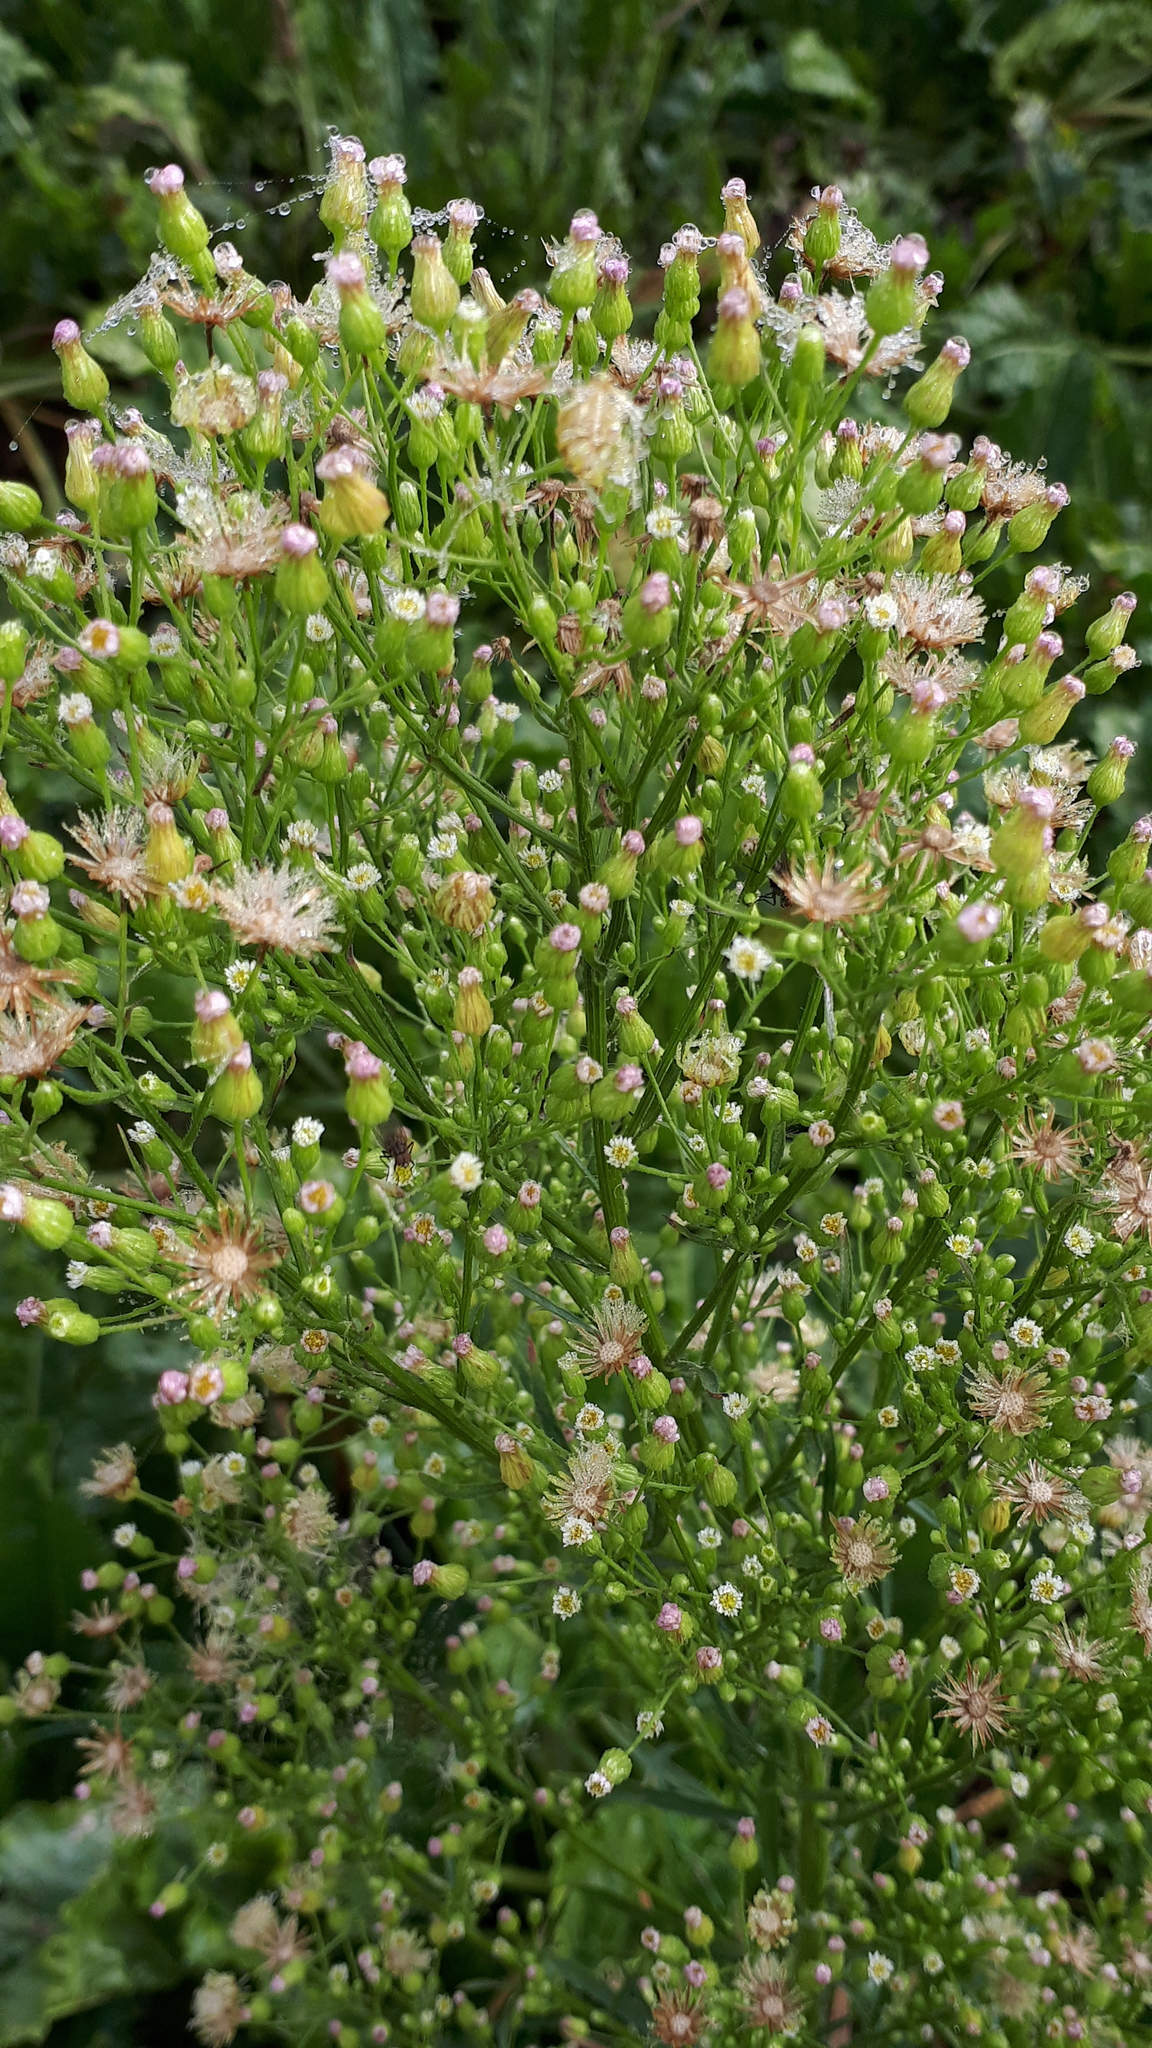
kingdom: Plantae
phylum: Tracheophyta
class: Magnoliopsida
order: Asterales
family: Asteraceae
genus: Erigeron
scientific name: Erigeron canadensis
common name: Canadian fleabane
